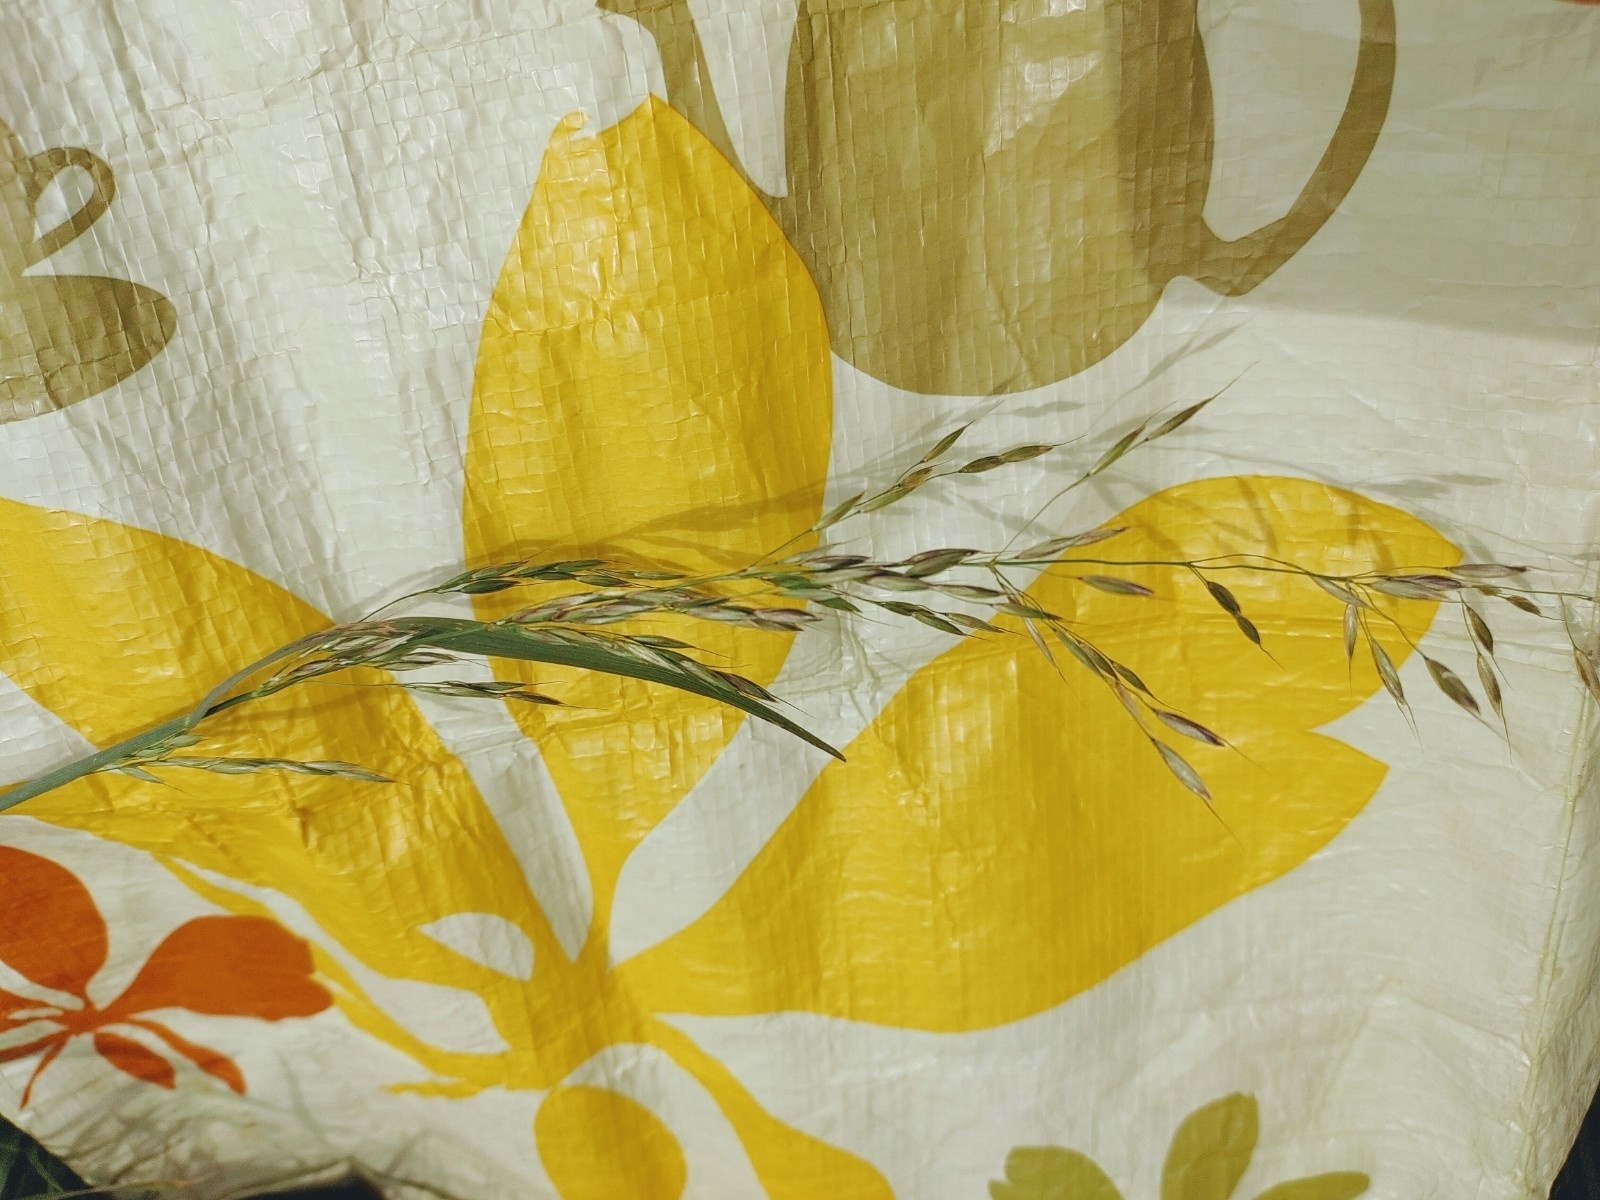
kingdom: Plantae
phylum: Tracheophyta
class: Liliopsida
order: Poales
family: Poaceae
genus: Arrhenatherum
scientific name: Arrhenatherum elatius
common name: Tall oatgrass
